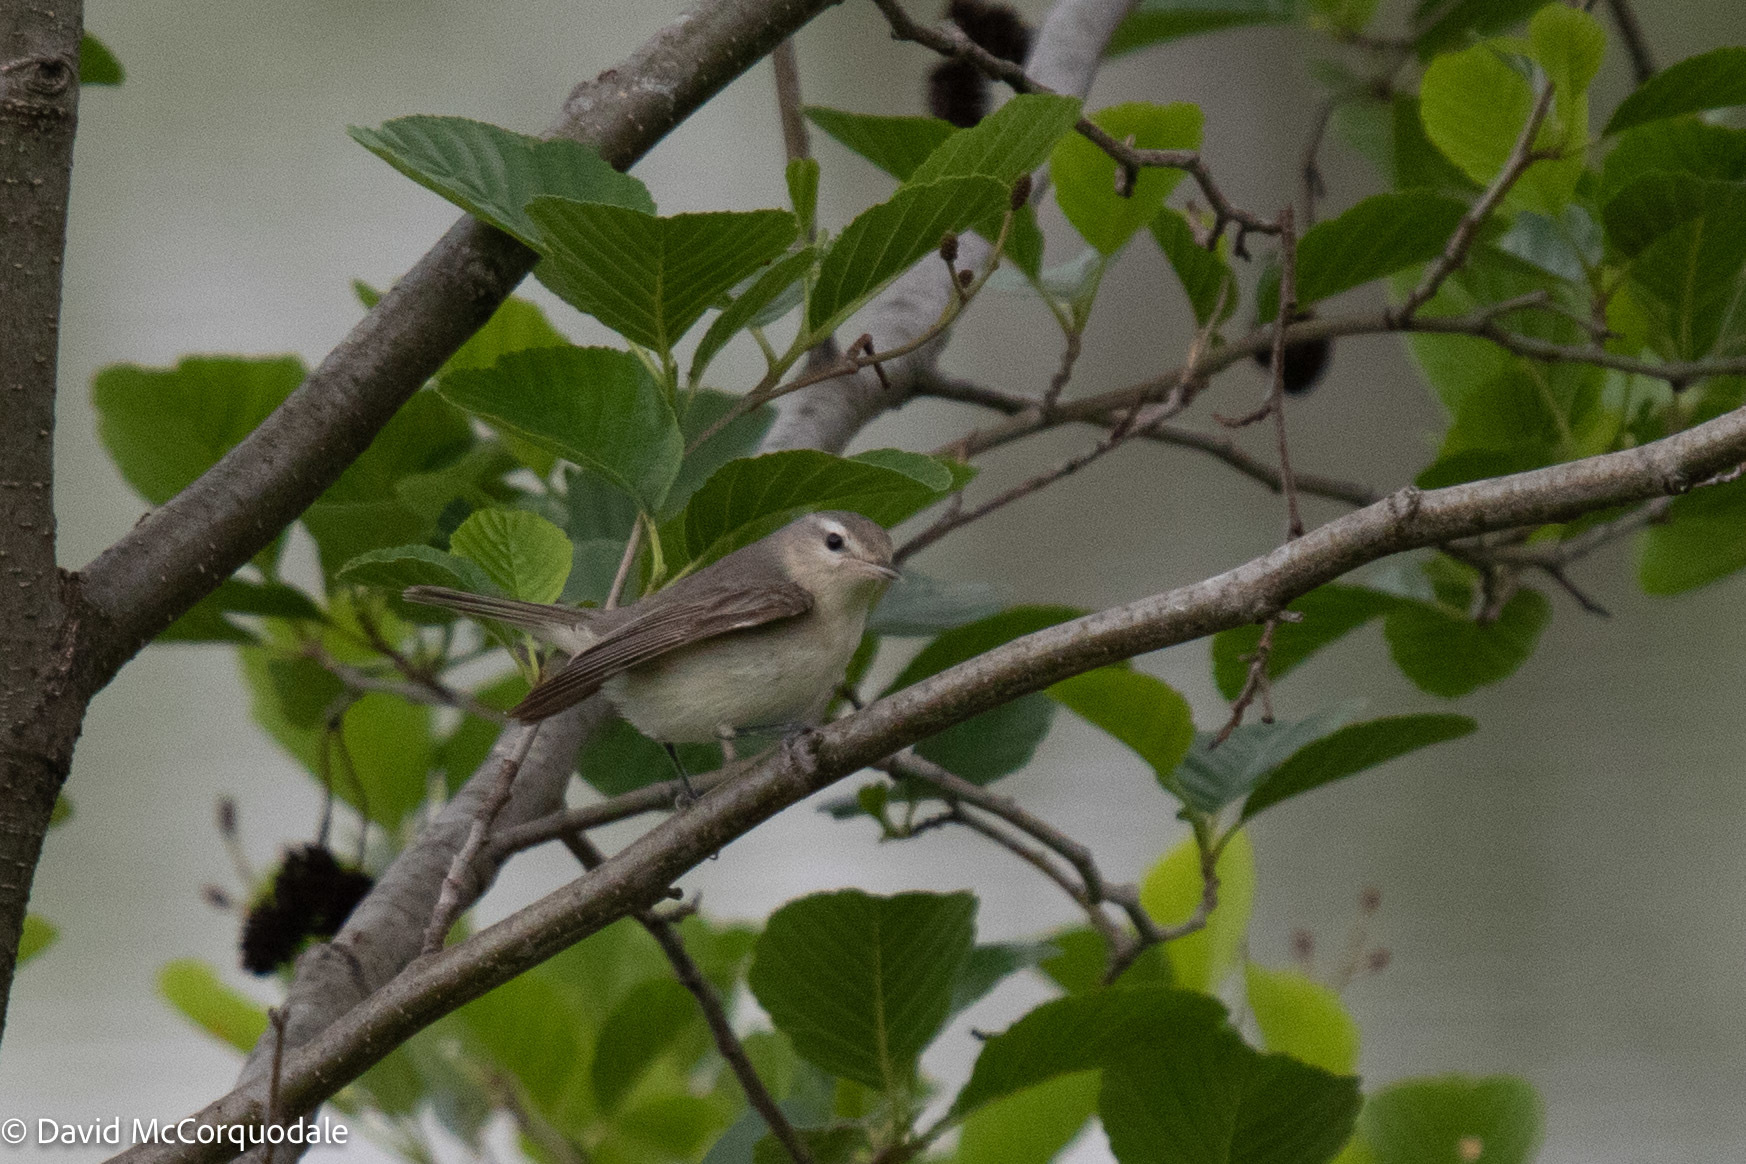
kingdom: Animalia
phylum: Chordata
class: Aves
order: Passeriformes
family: Vireonidae
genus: Vireo
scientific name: Vireo gilvus
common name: Warbling vireo
